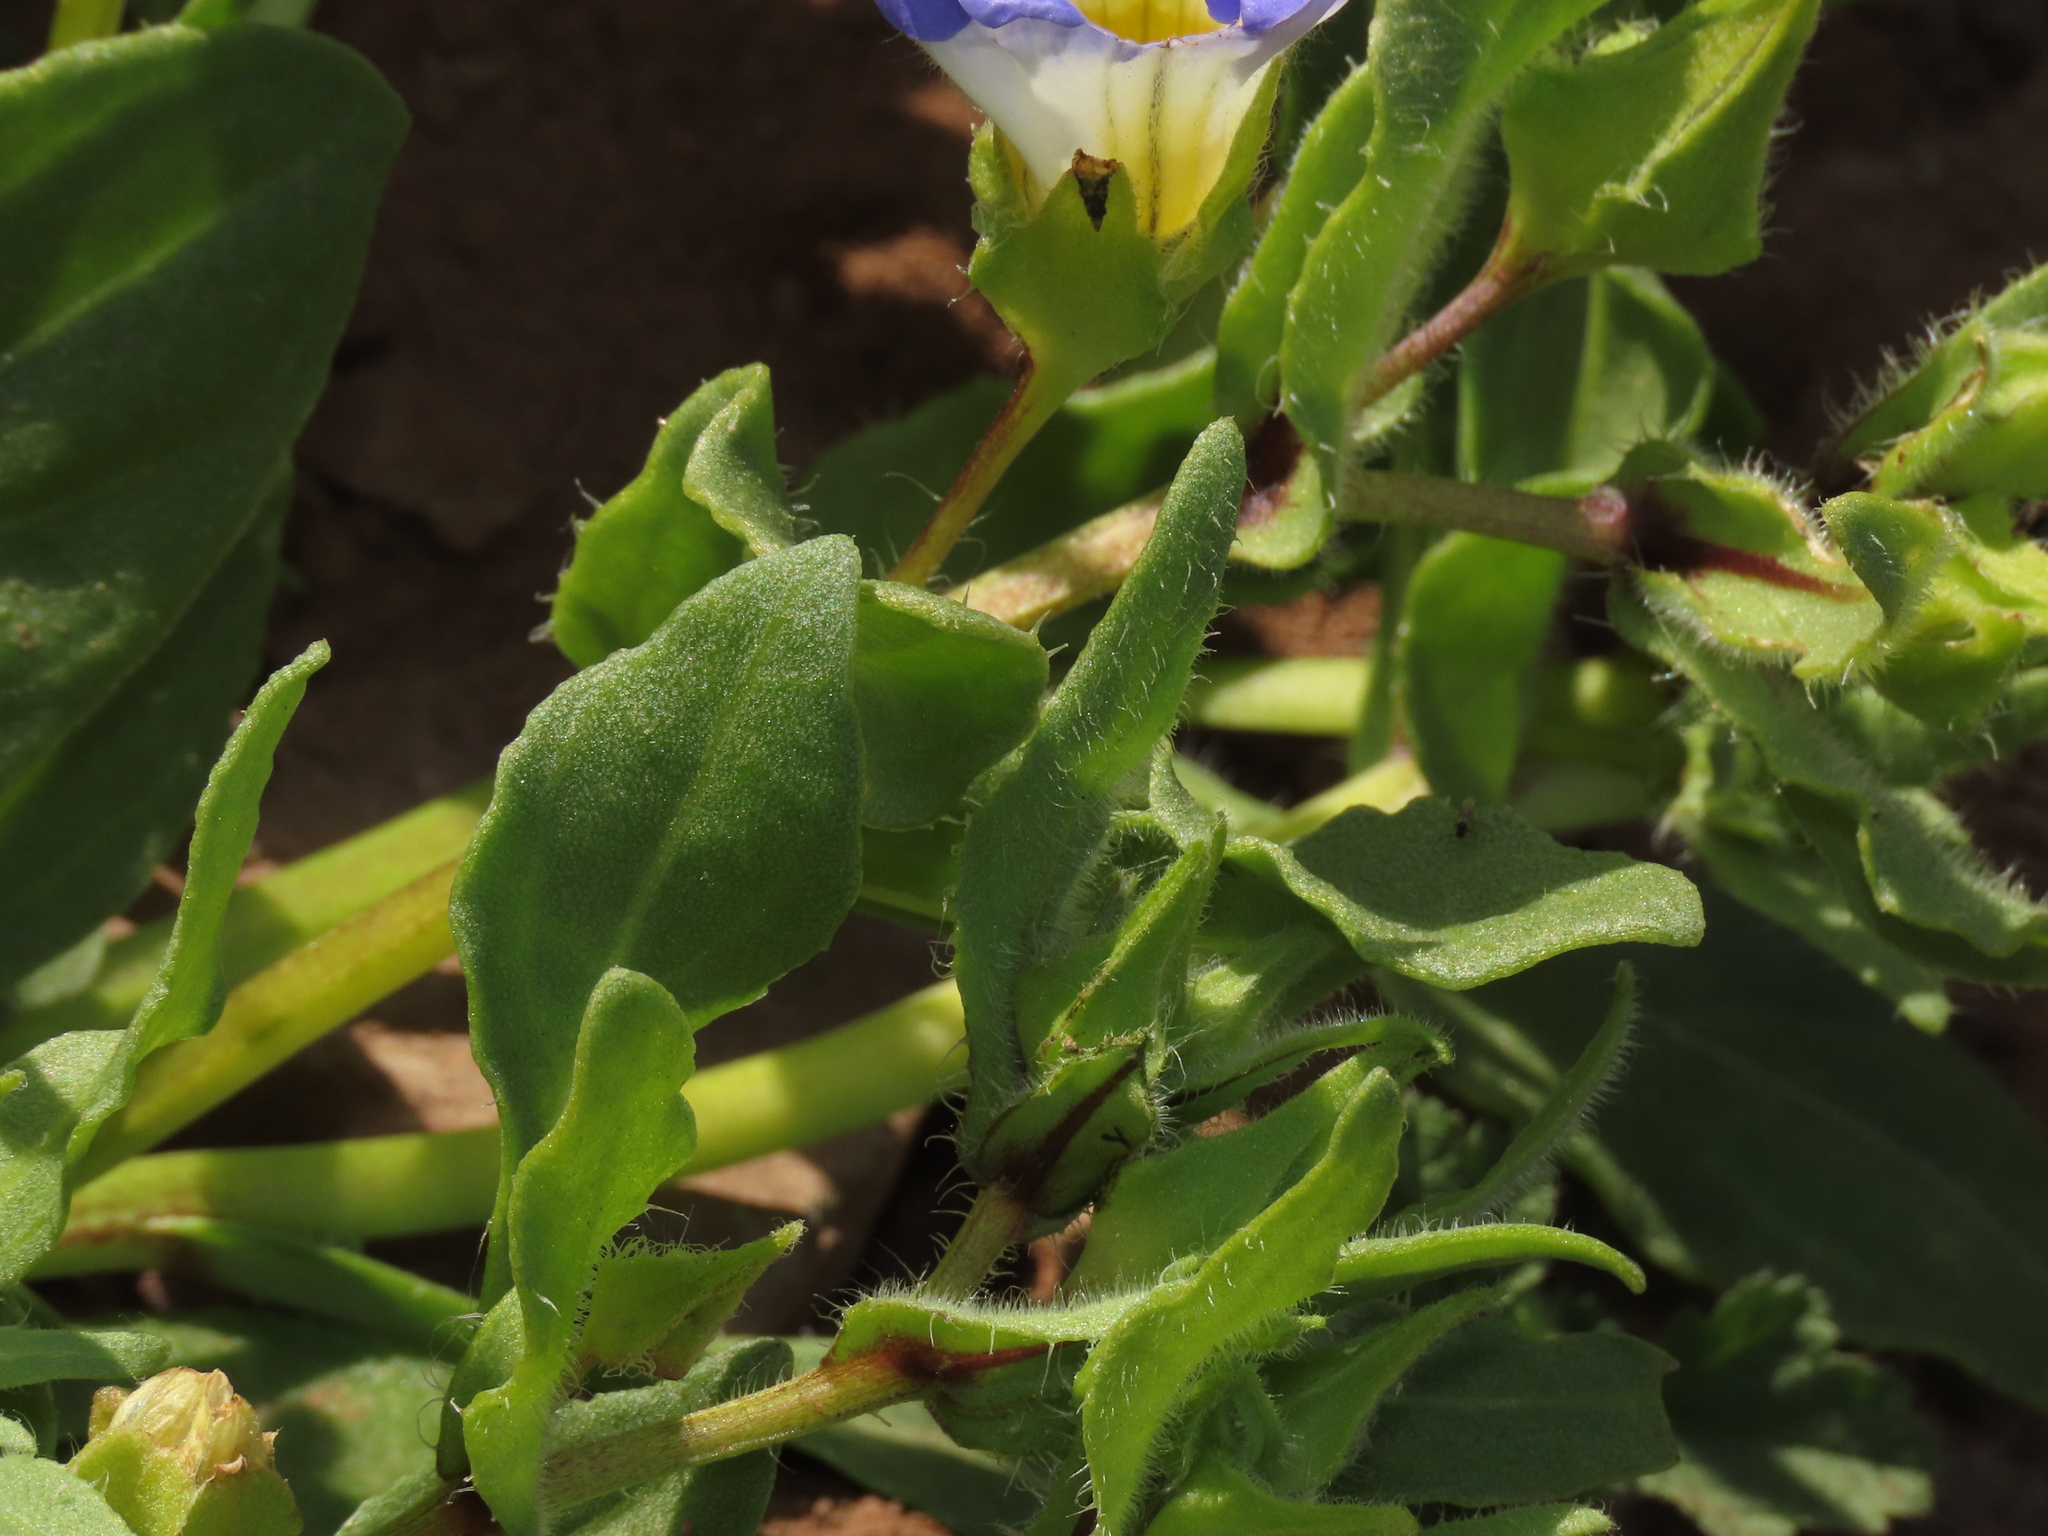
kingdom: Plantae
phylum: Tracheophyta
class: Magnoliopsida
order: Solanales
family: Solanaceae
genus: Nolana
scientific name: Nolana acuminata
